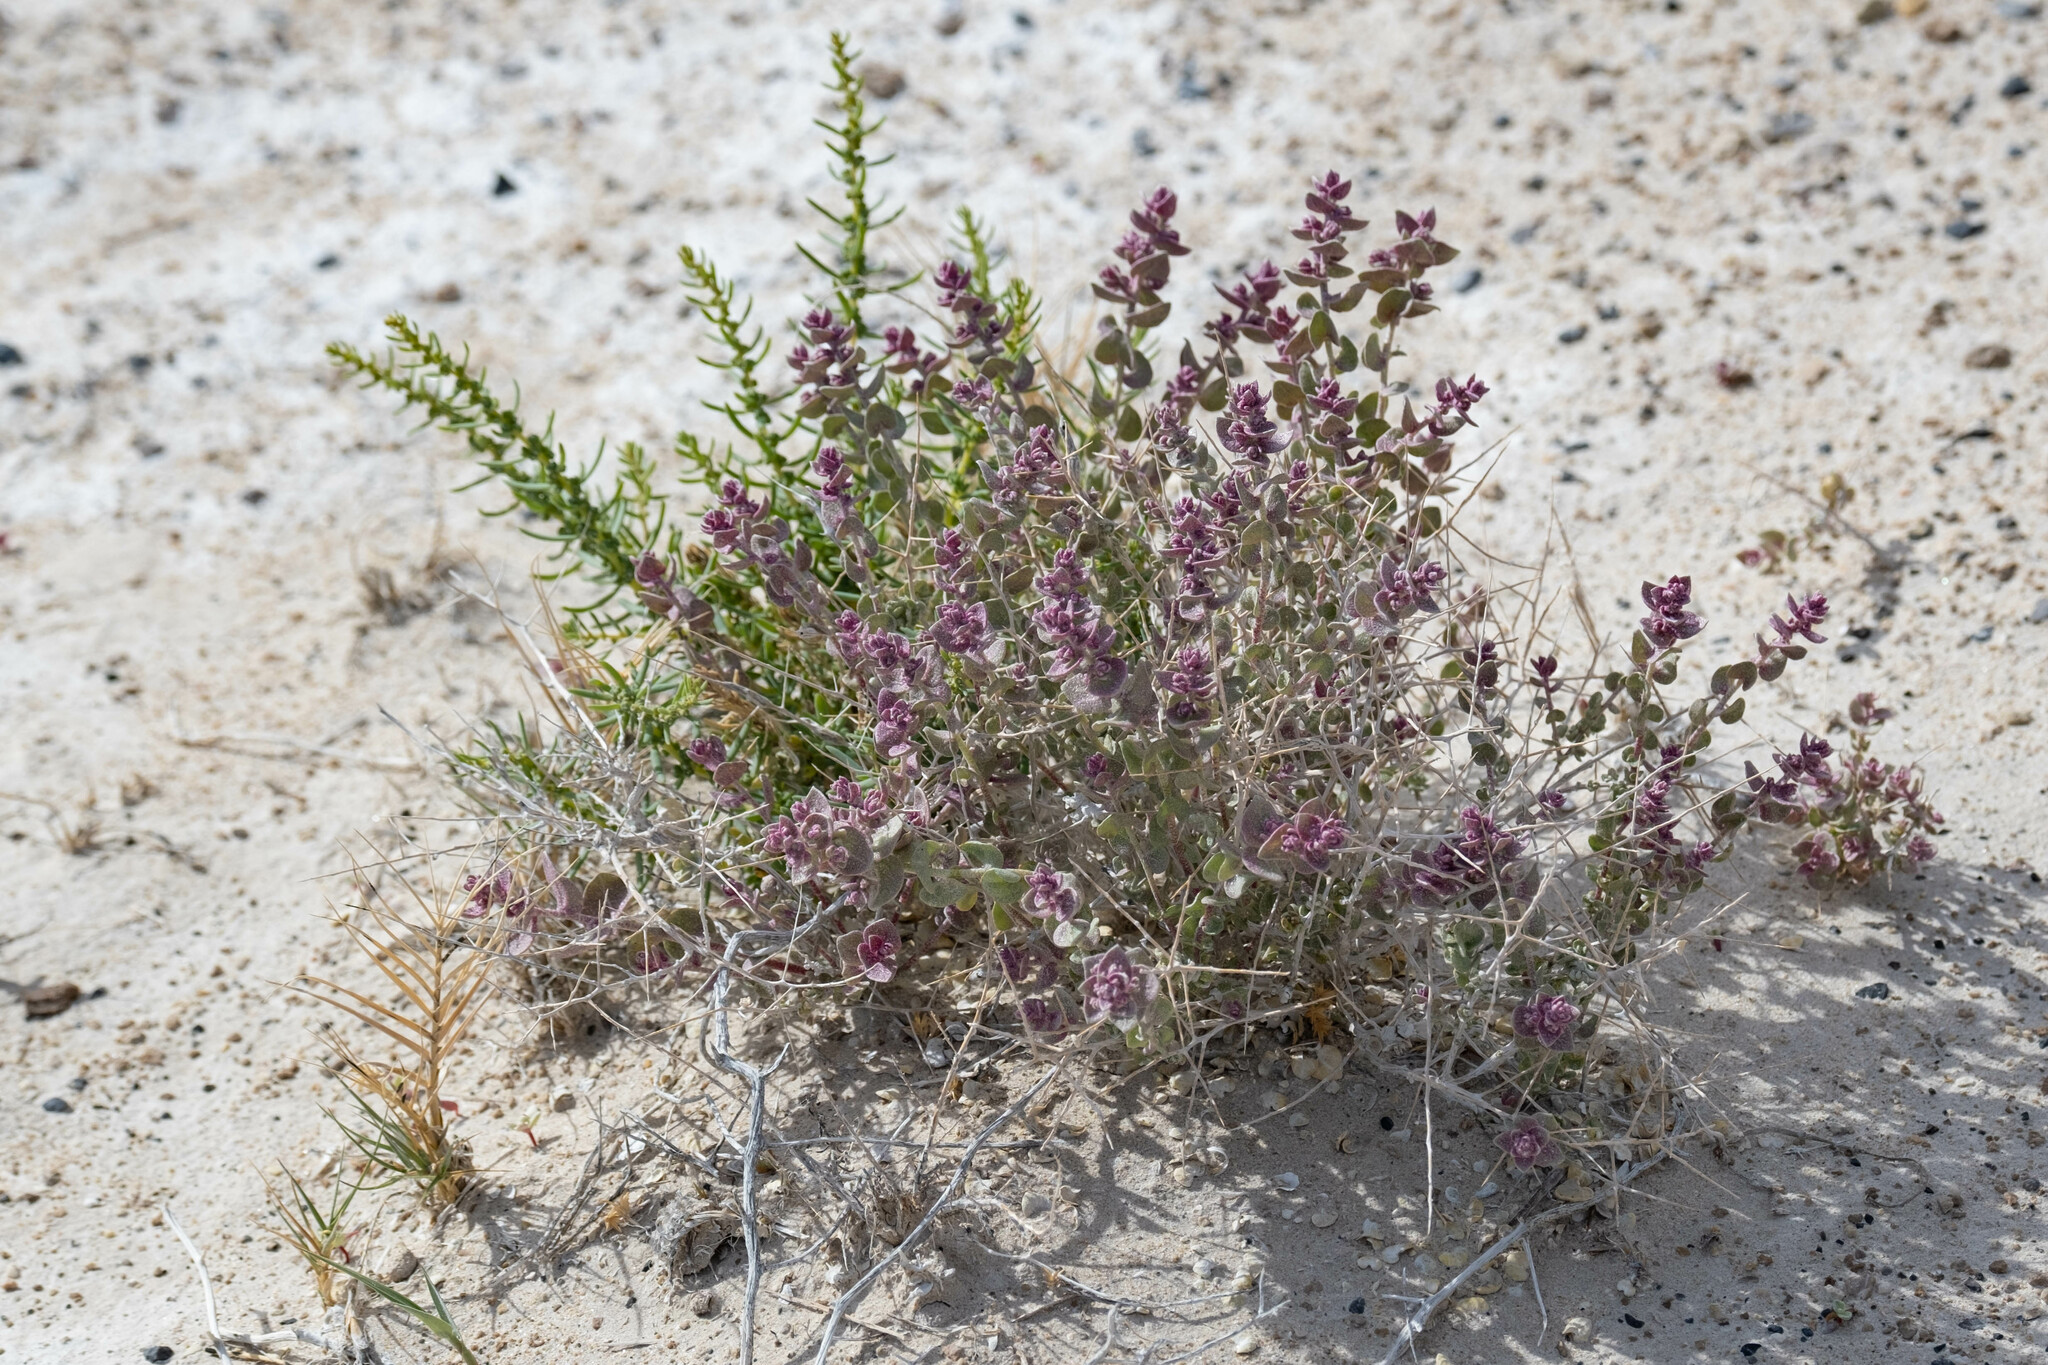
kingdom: Plantae
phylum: Tracheophyta
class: Magnoliopsida
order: Caryophyllales
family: Amaranthaceae
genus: Grayia
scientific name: Grayia spinosa
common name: Spiny hopsage
